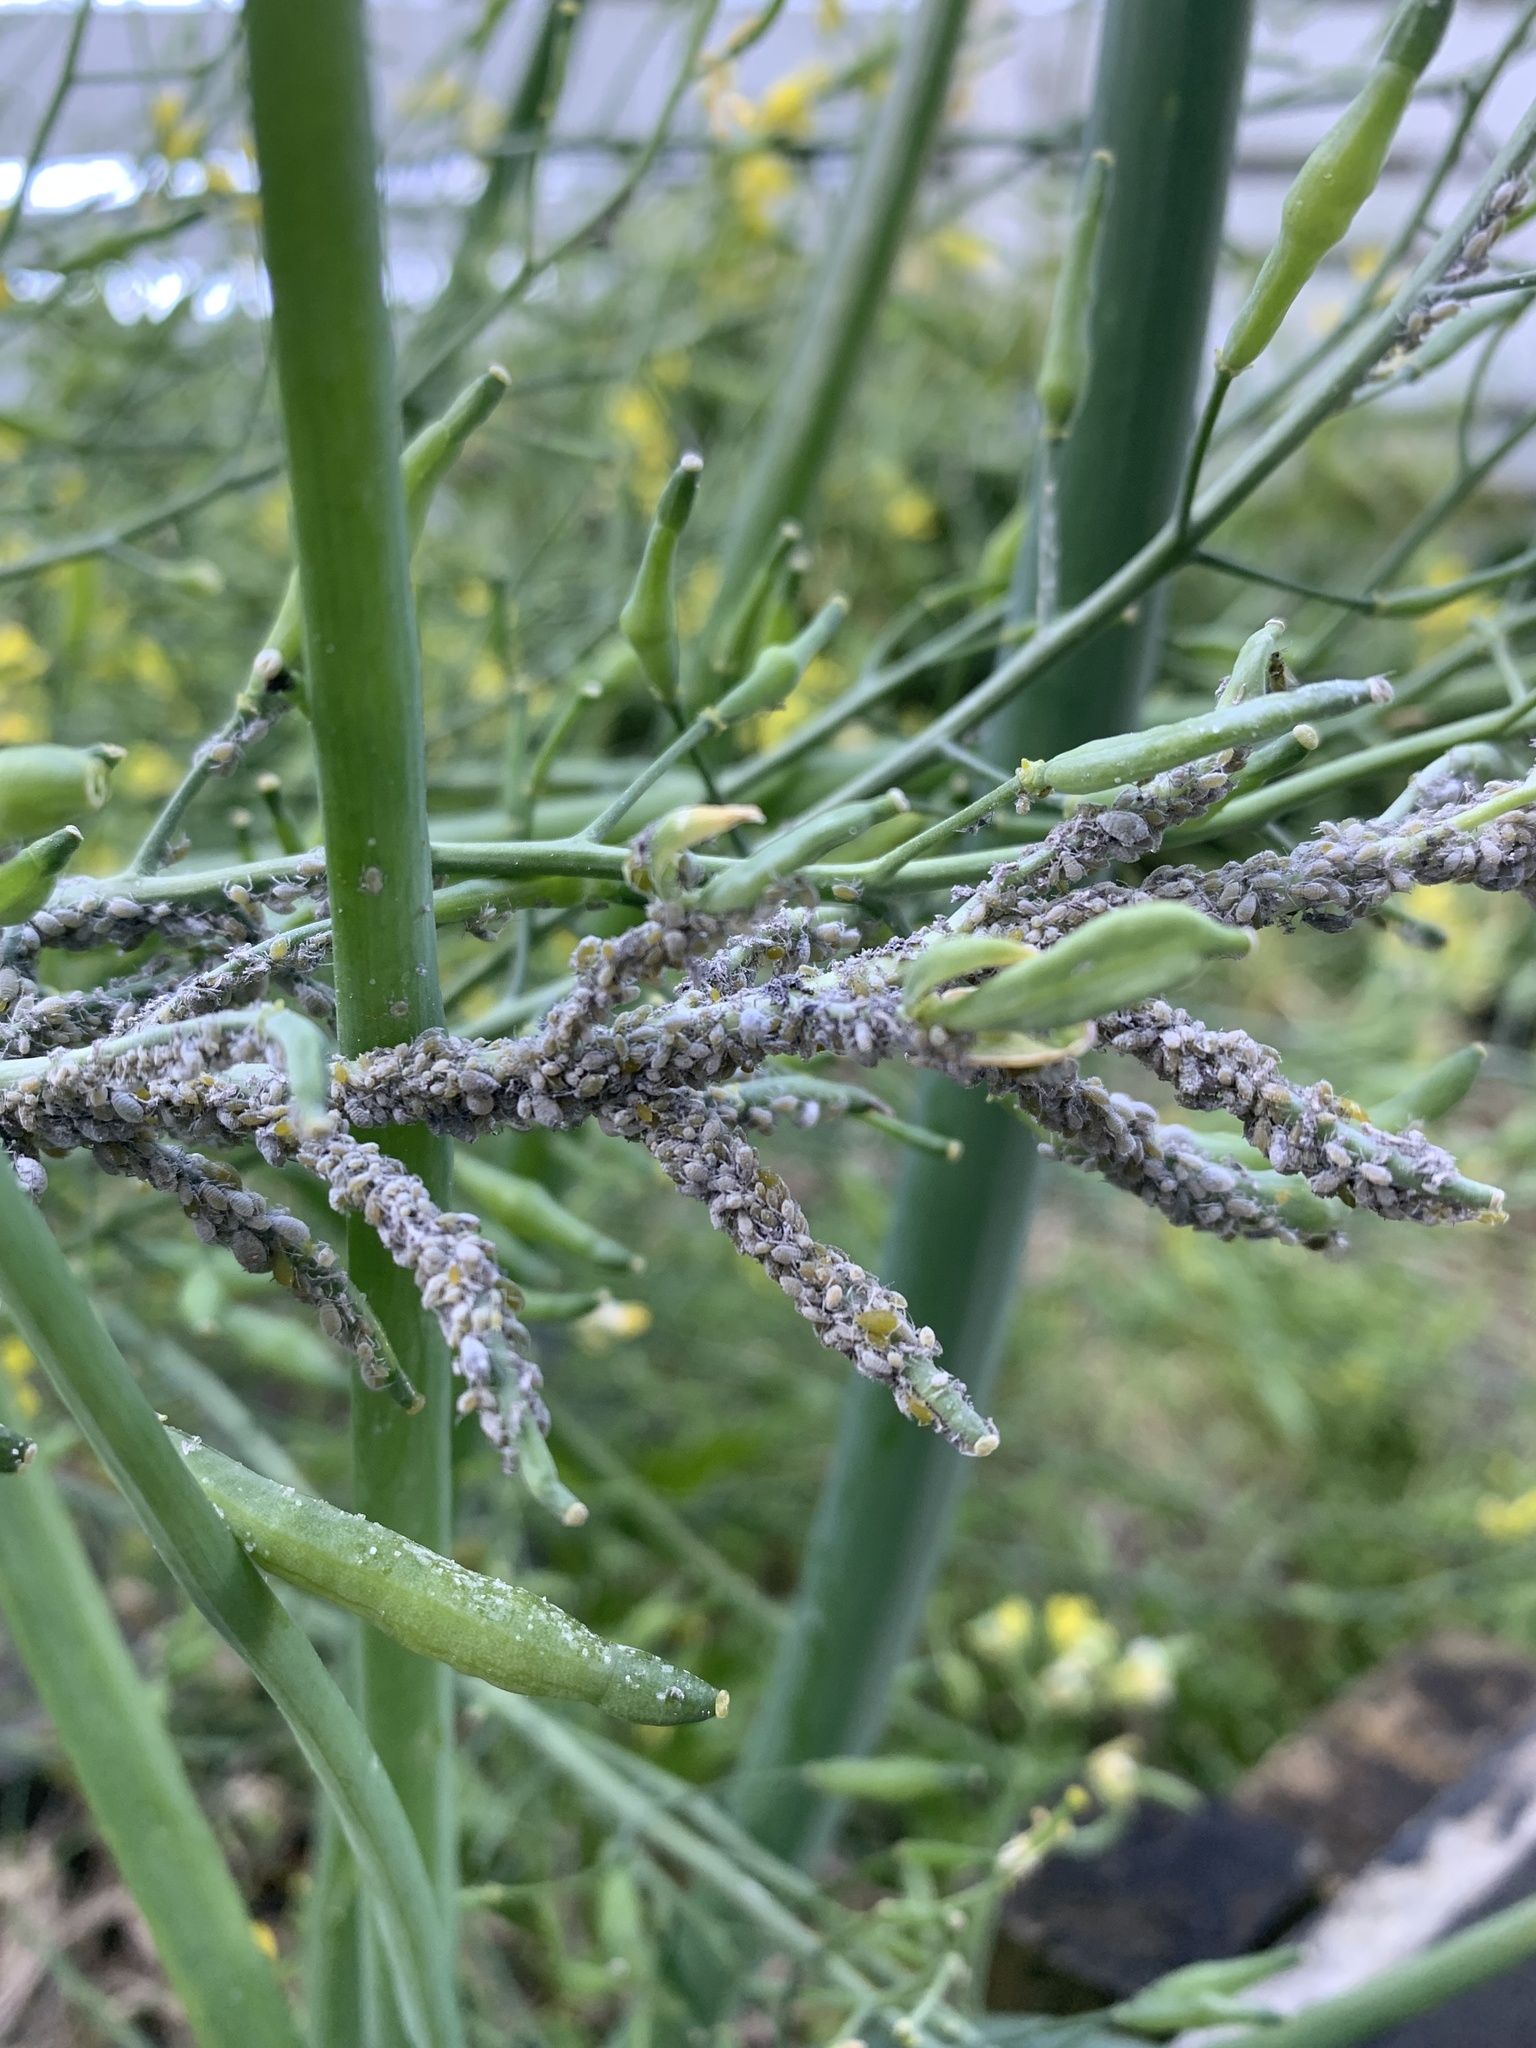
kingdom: Animalia
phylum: Arthropoda
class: Insecta
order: Hemiptera
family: Aphididae
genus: Brevicoryne
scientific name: Brevicoryne brassicae
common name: Cabbage aphid
